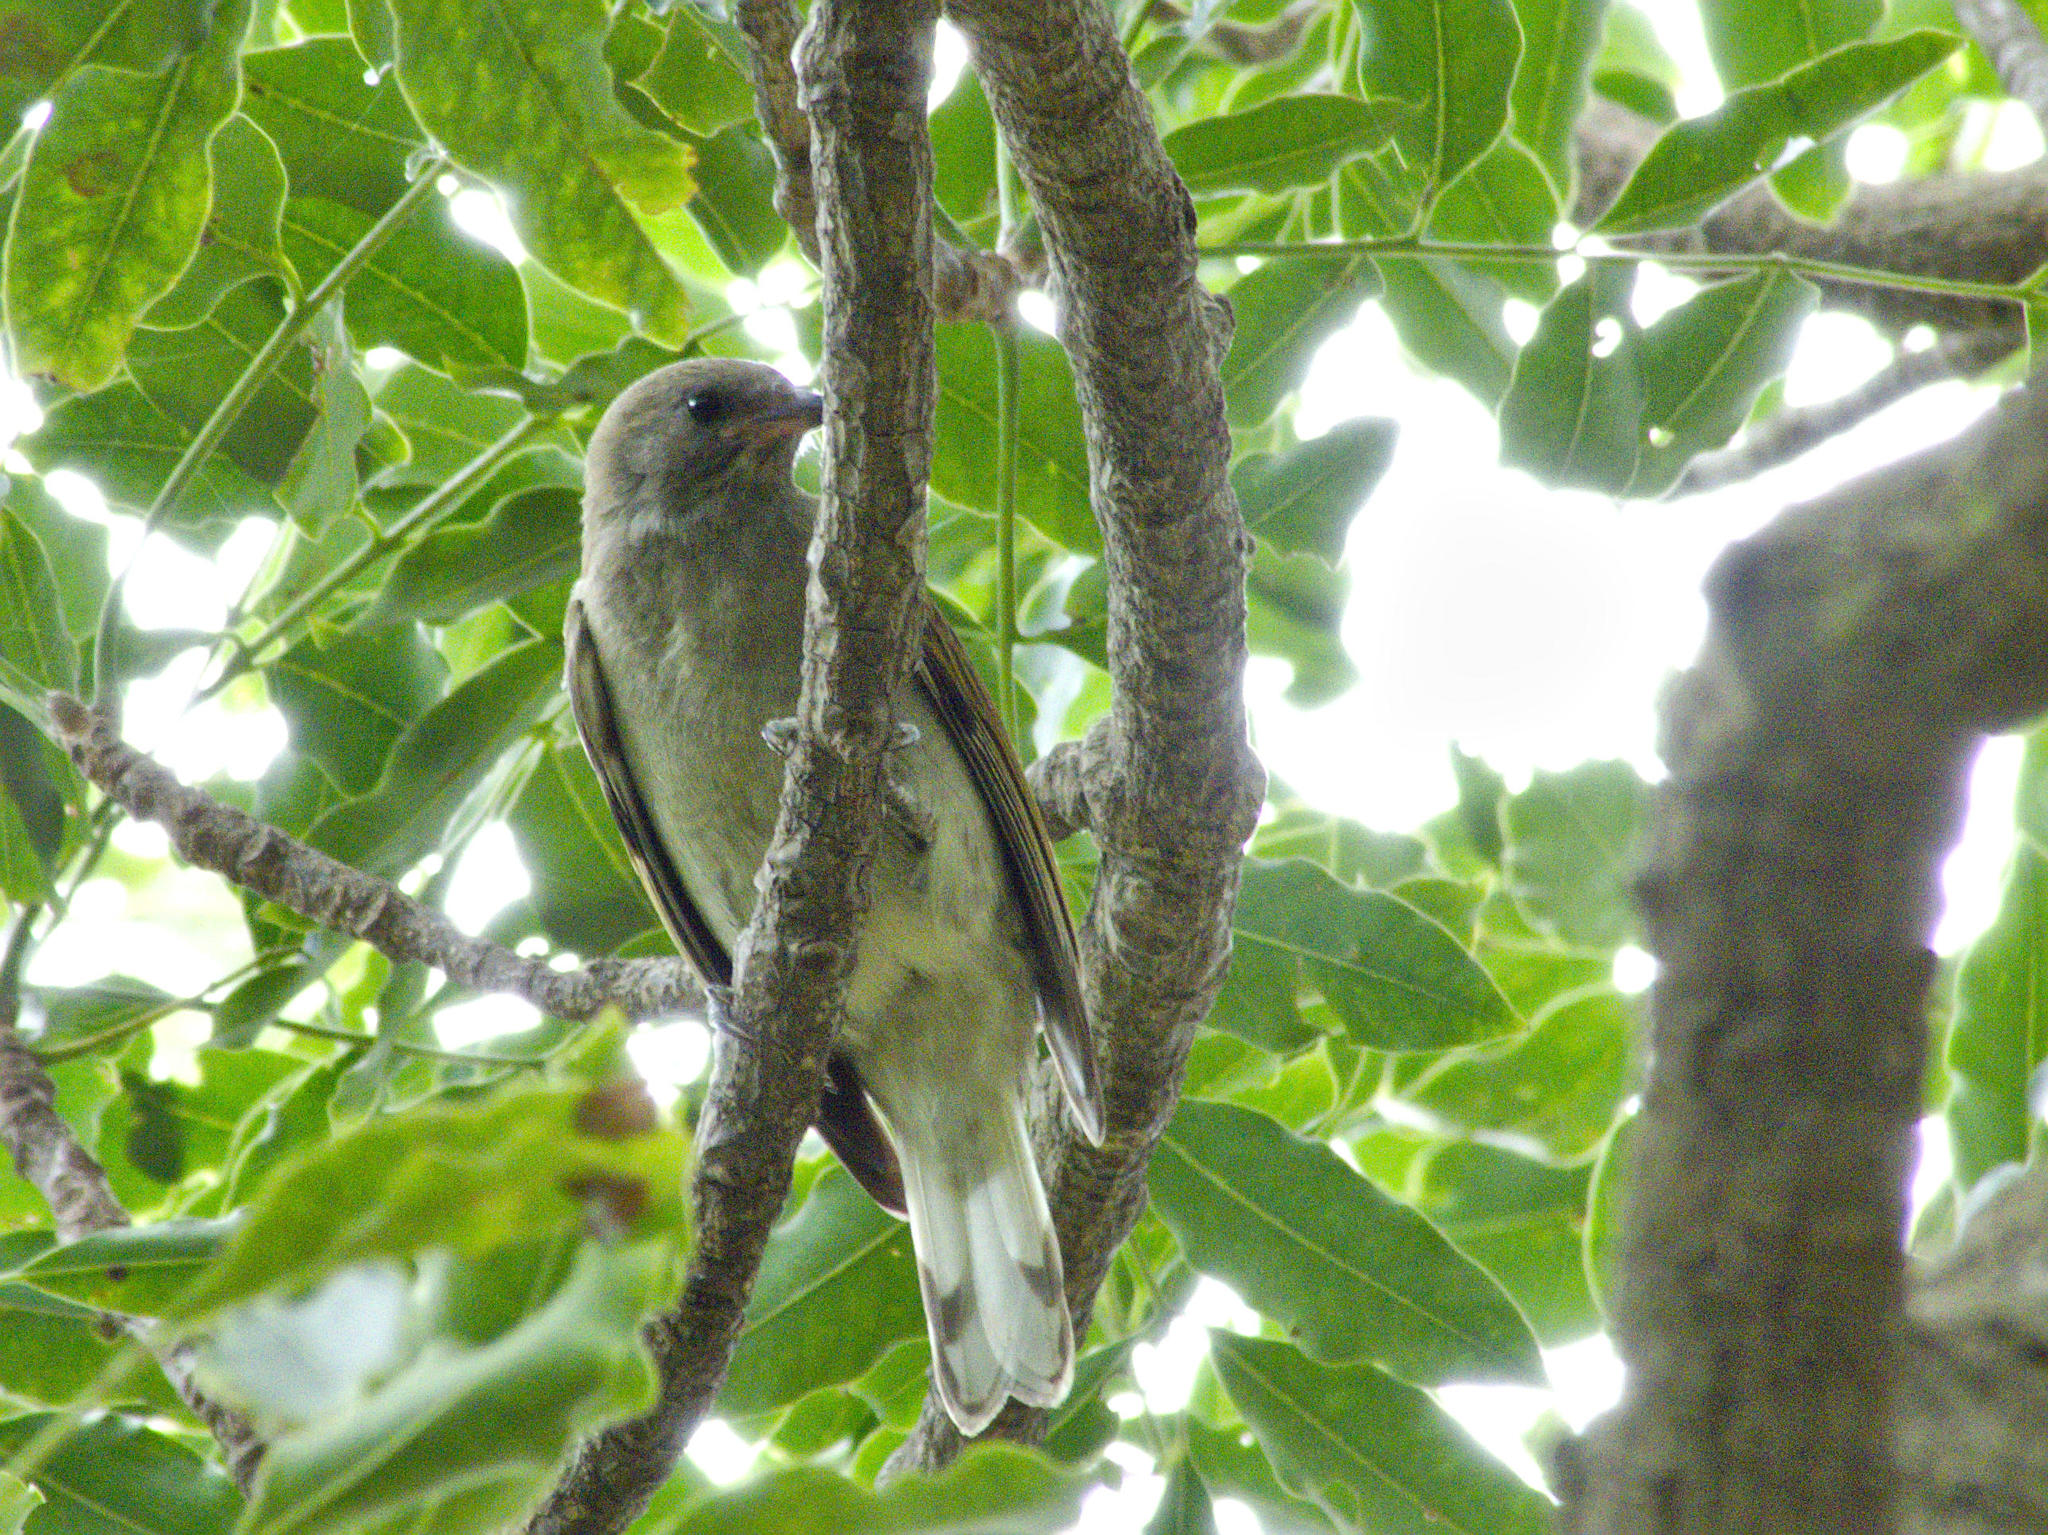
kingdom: Animalia
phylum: Chordata
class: Aves
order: Piciformes
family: Indicatoridae
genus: Indicator
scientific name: Indicator minor
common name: Lesser honeyguide
